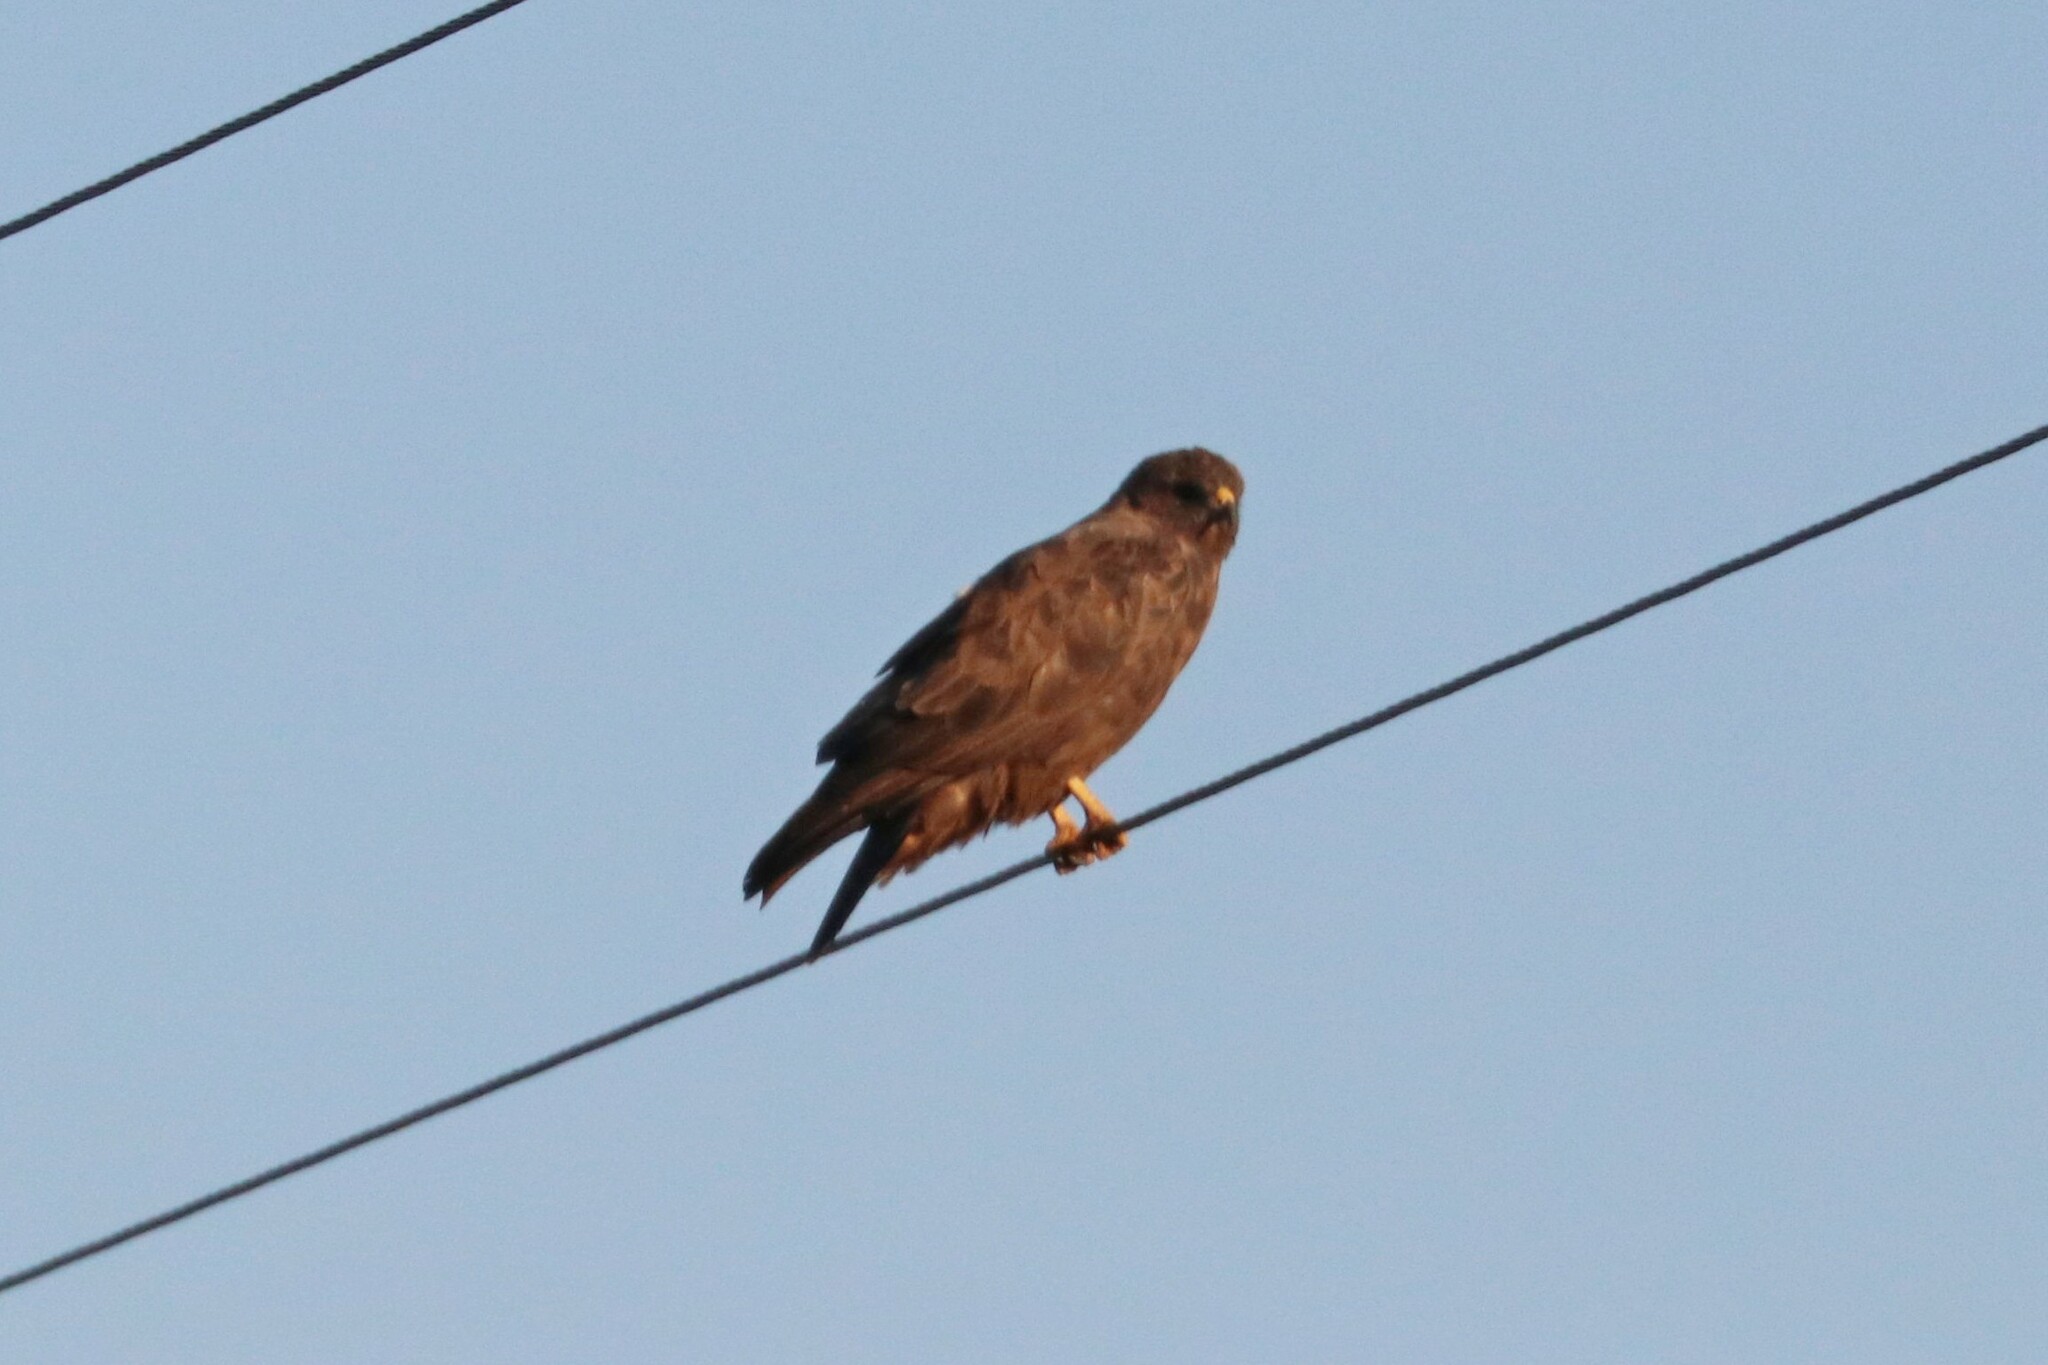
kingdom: Animalia
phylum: Chordata
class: Aves
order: Accipitriformes
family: Accipitridae
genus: Buteo
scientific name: Buteo buteo
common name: Common buzzard
